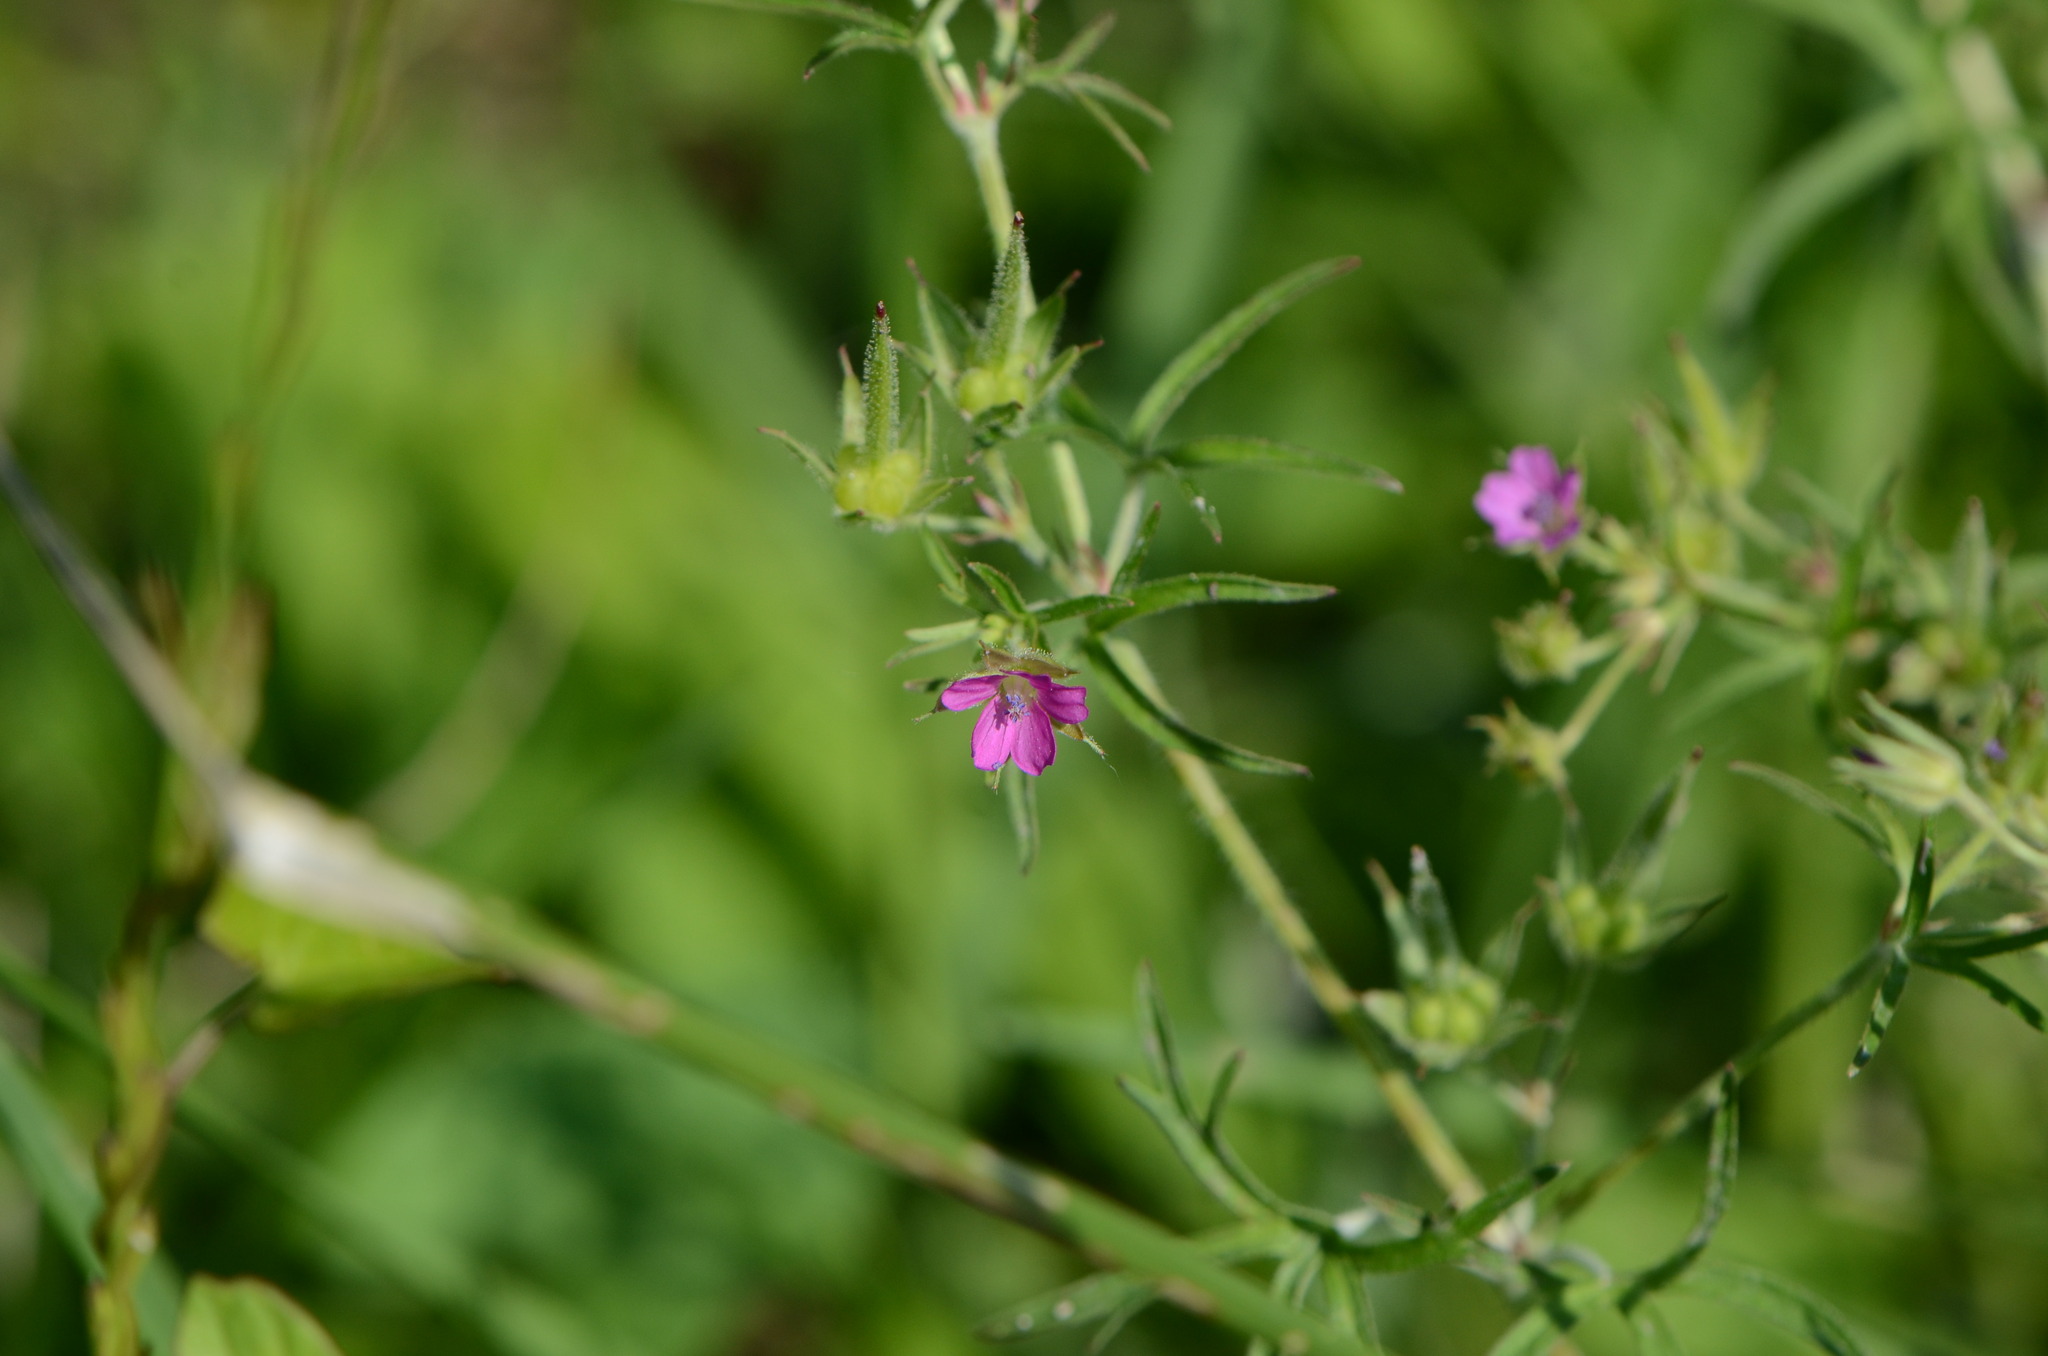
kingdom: Plantae
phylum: Tracheophyta
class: Magnoliopsida
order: Geraniales
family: Geraniaceae
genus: Geranium
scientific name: Geranium dissectum
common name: Cut-leaved crane's-bill
